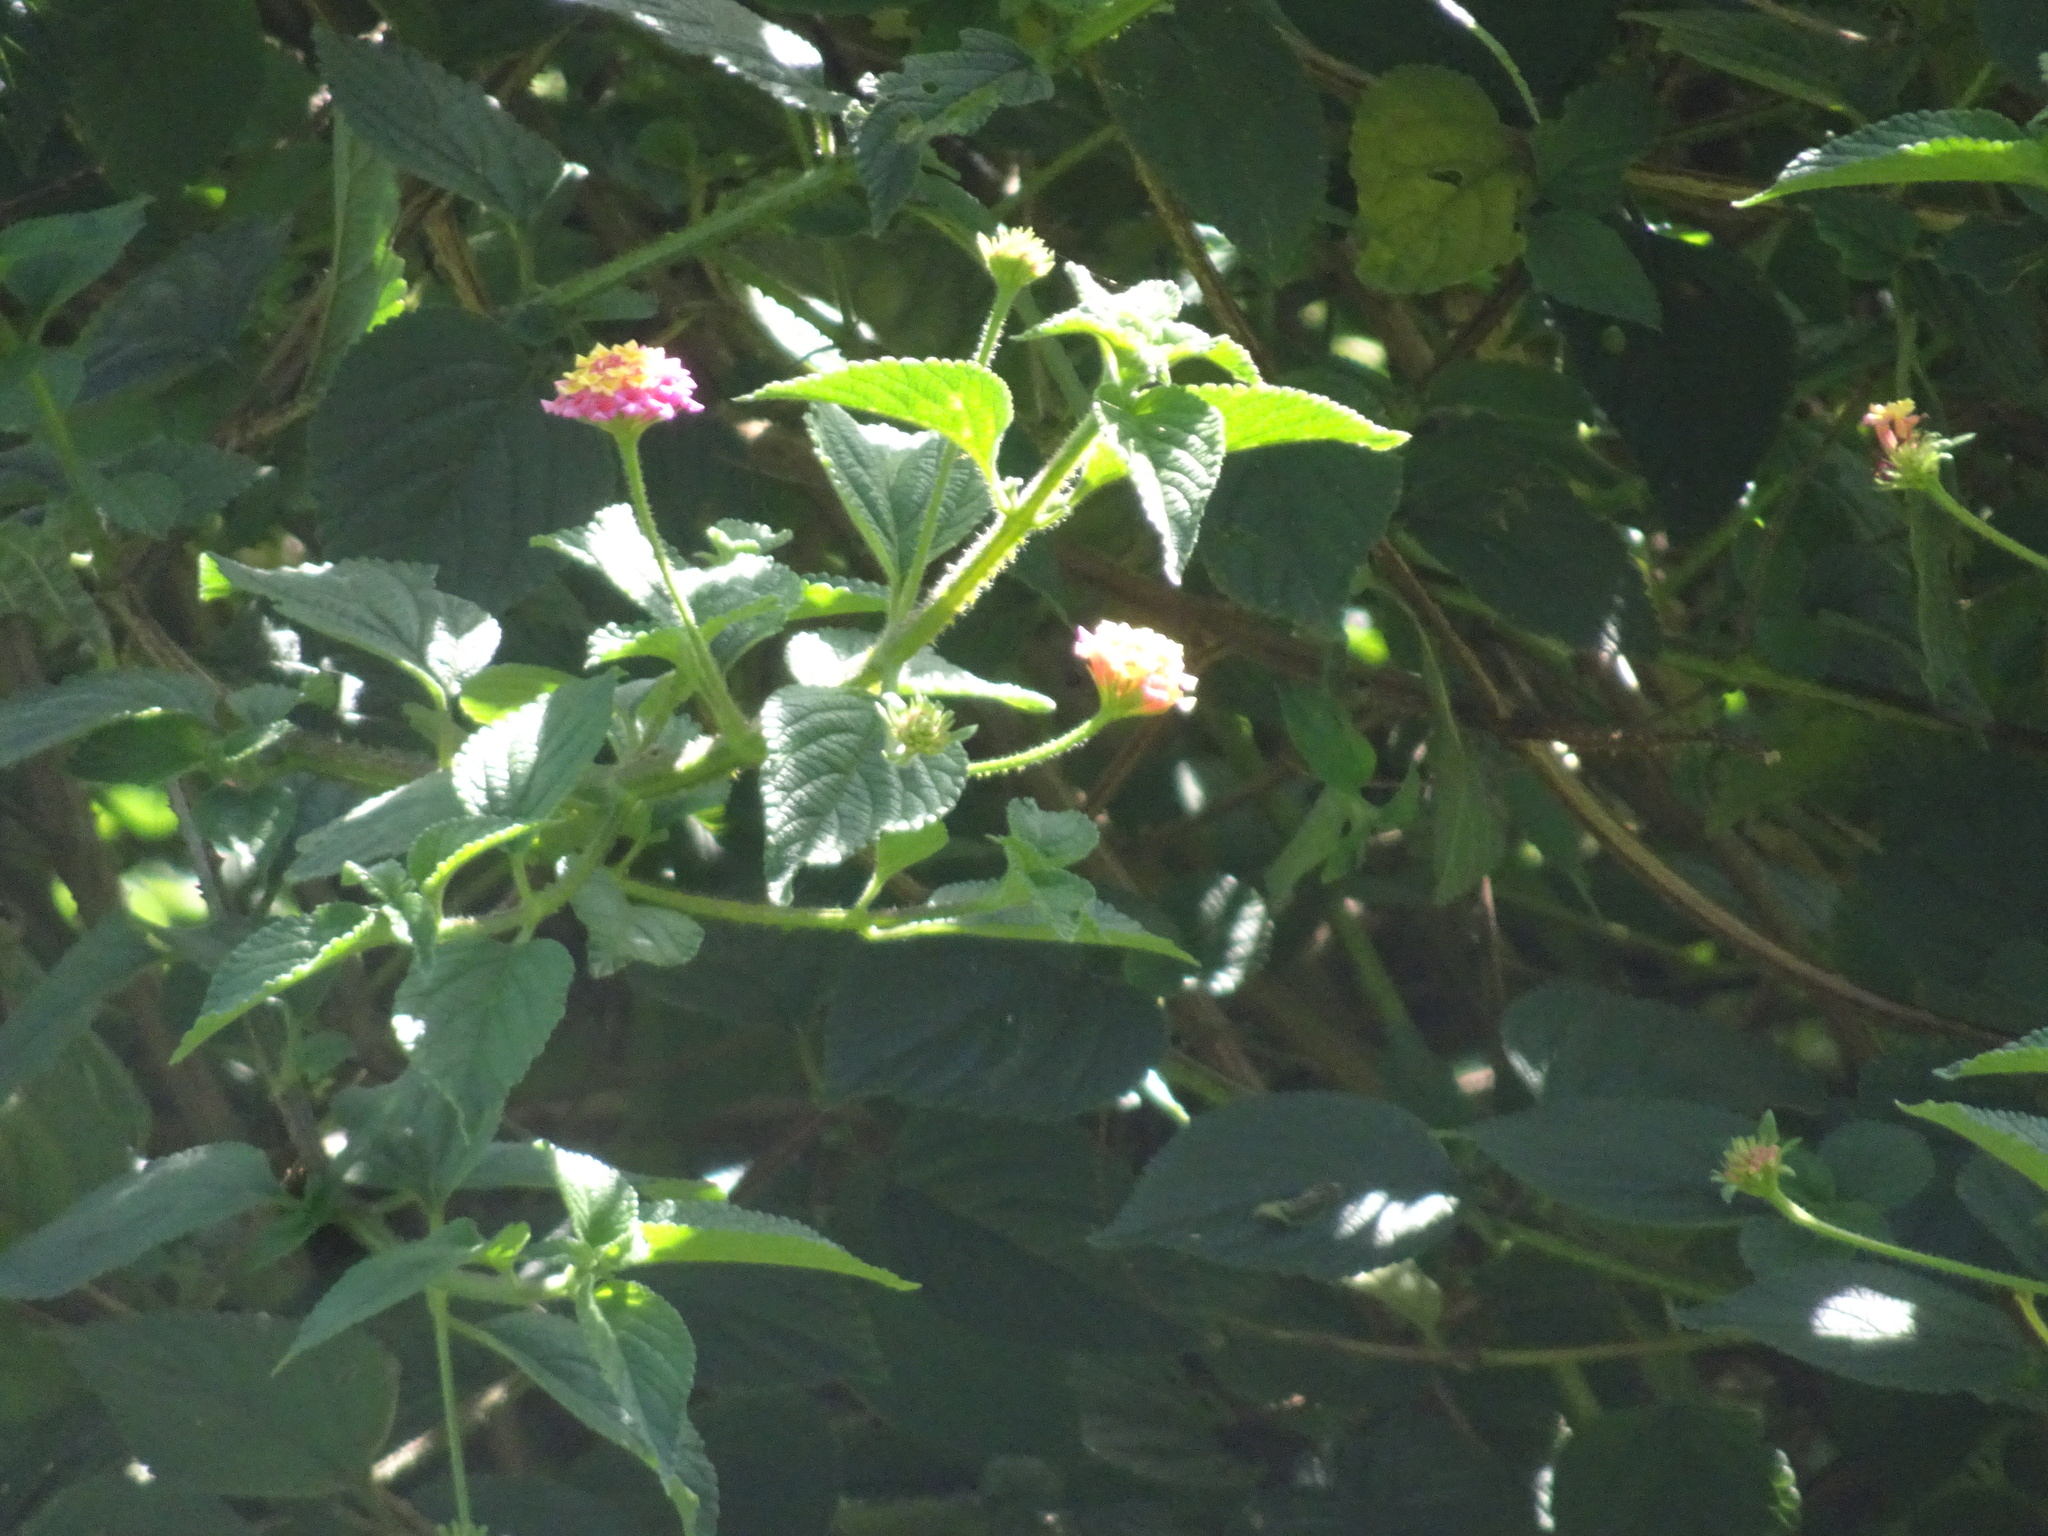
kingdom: Plantae
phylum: Tracheophyta
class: Magnoliopsida
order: Lamiales
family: Verbenaceae
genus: Lantana
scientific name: Lantana camara
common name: Lantana
